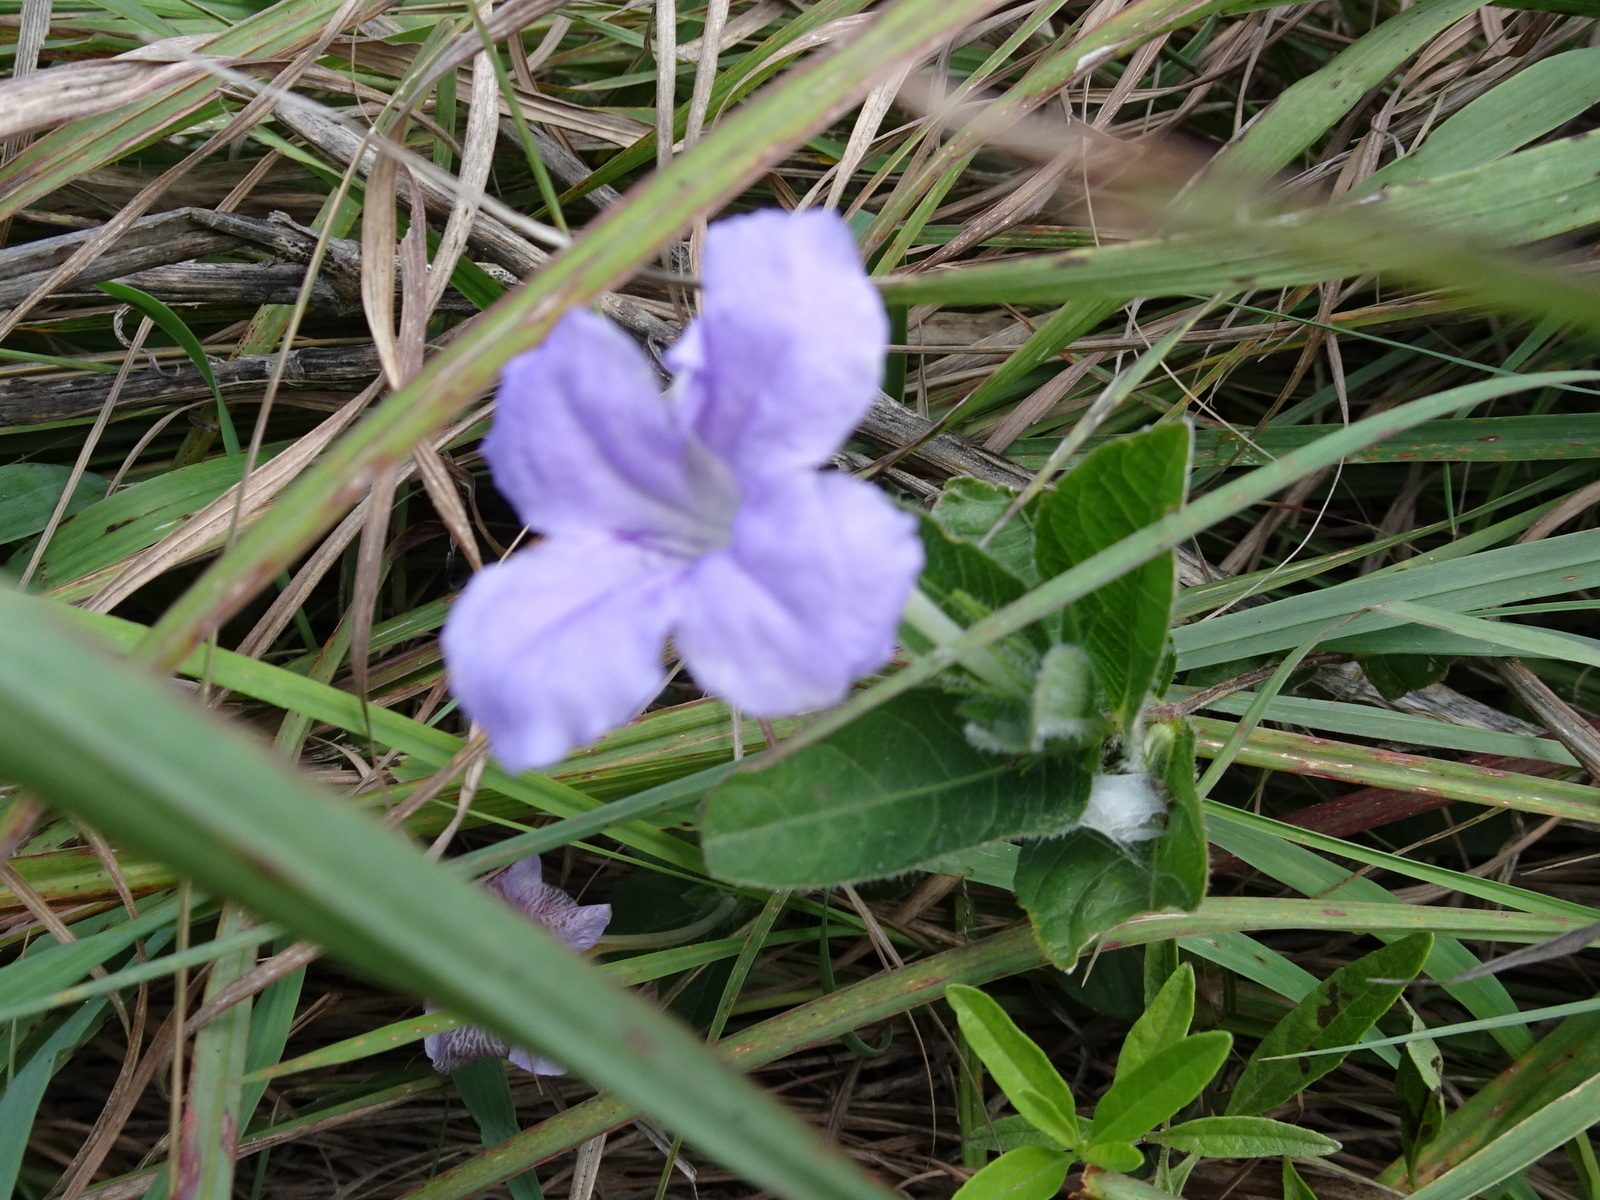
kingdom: Plantae
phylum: Tracheophyta
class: Magnoliopsida
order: Lamiales
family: Acanthaceae
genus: Ruellia
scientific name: Ruellia humilis
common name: Fringe-leaf ruellia
